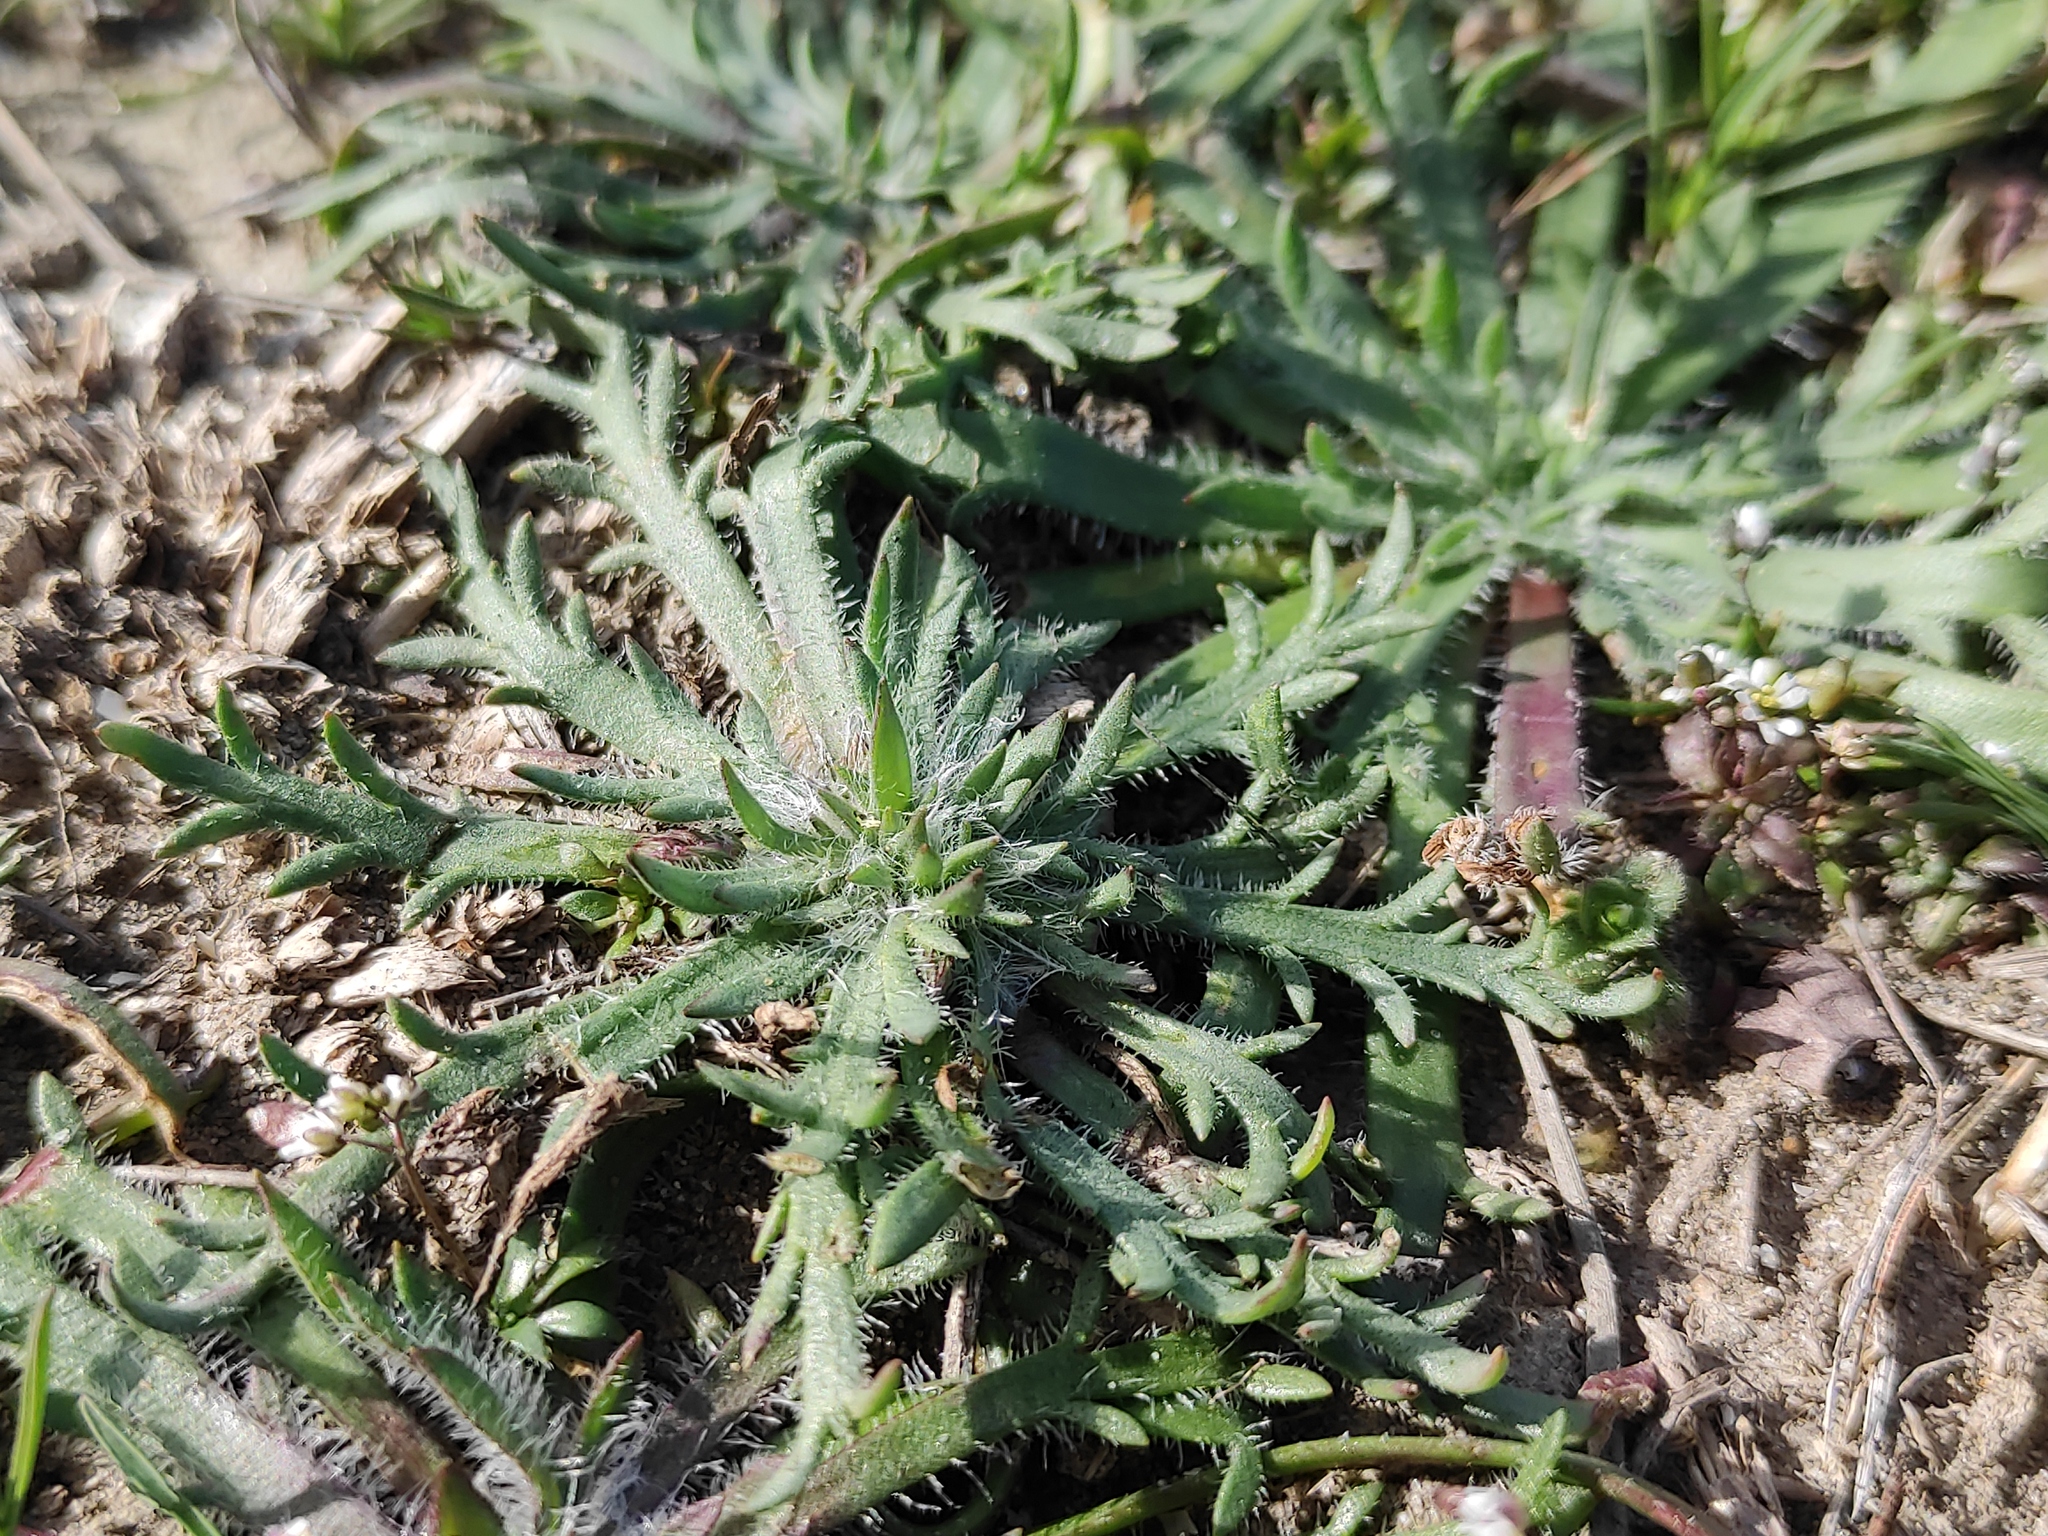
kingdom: Plantae
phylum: Tracheophyta
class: Magnoliopsida
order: Lamiales
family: Plantaginaceae
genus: Plantago
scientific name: Plantago coronopus
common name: Buck's-horn plantain
